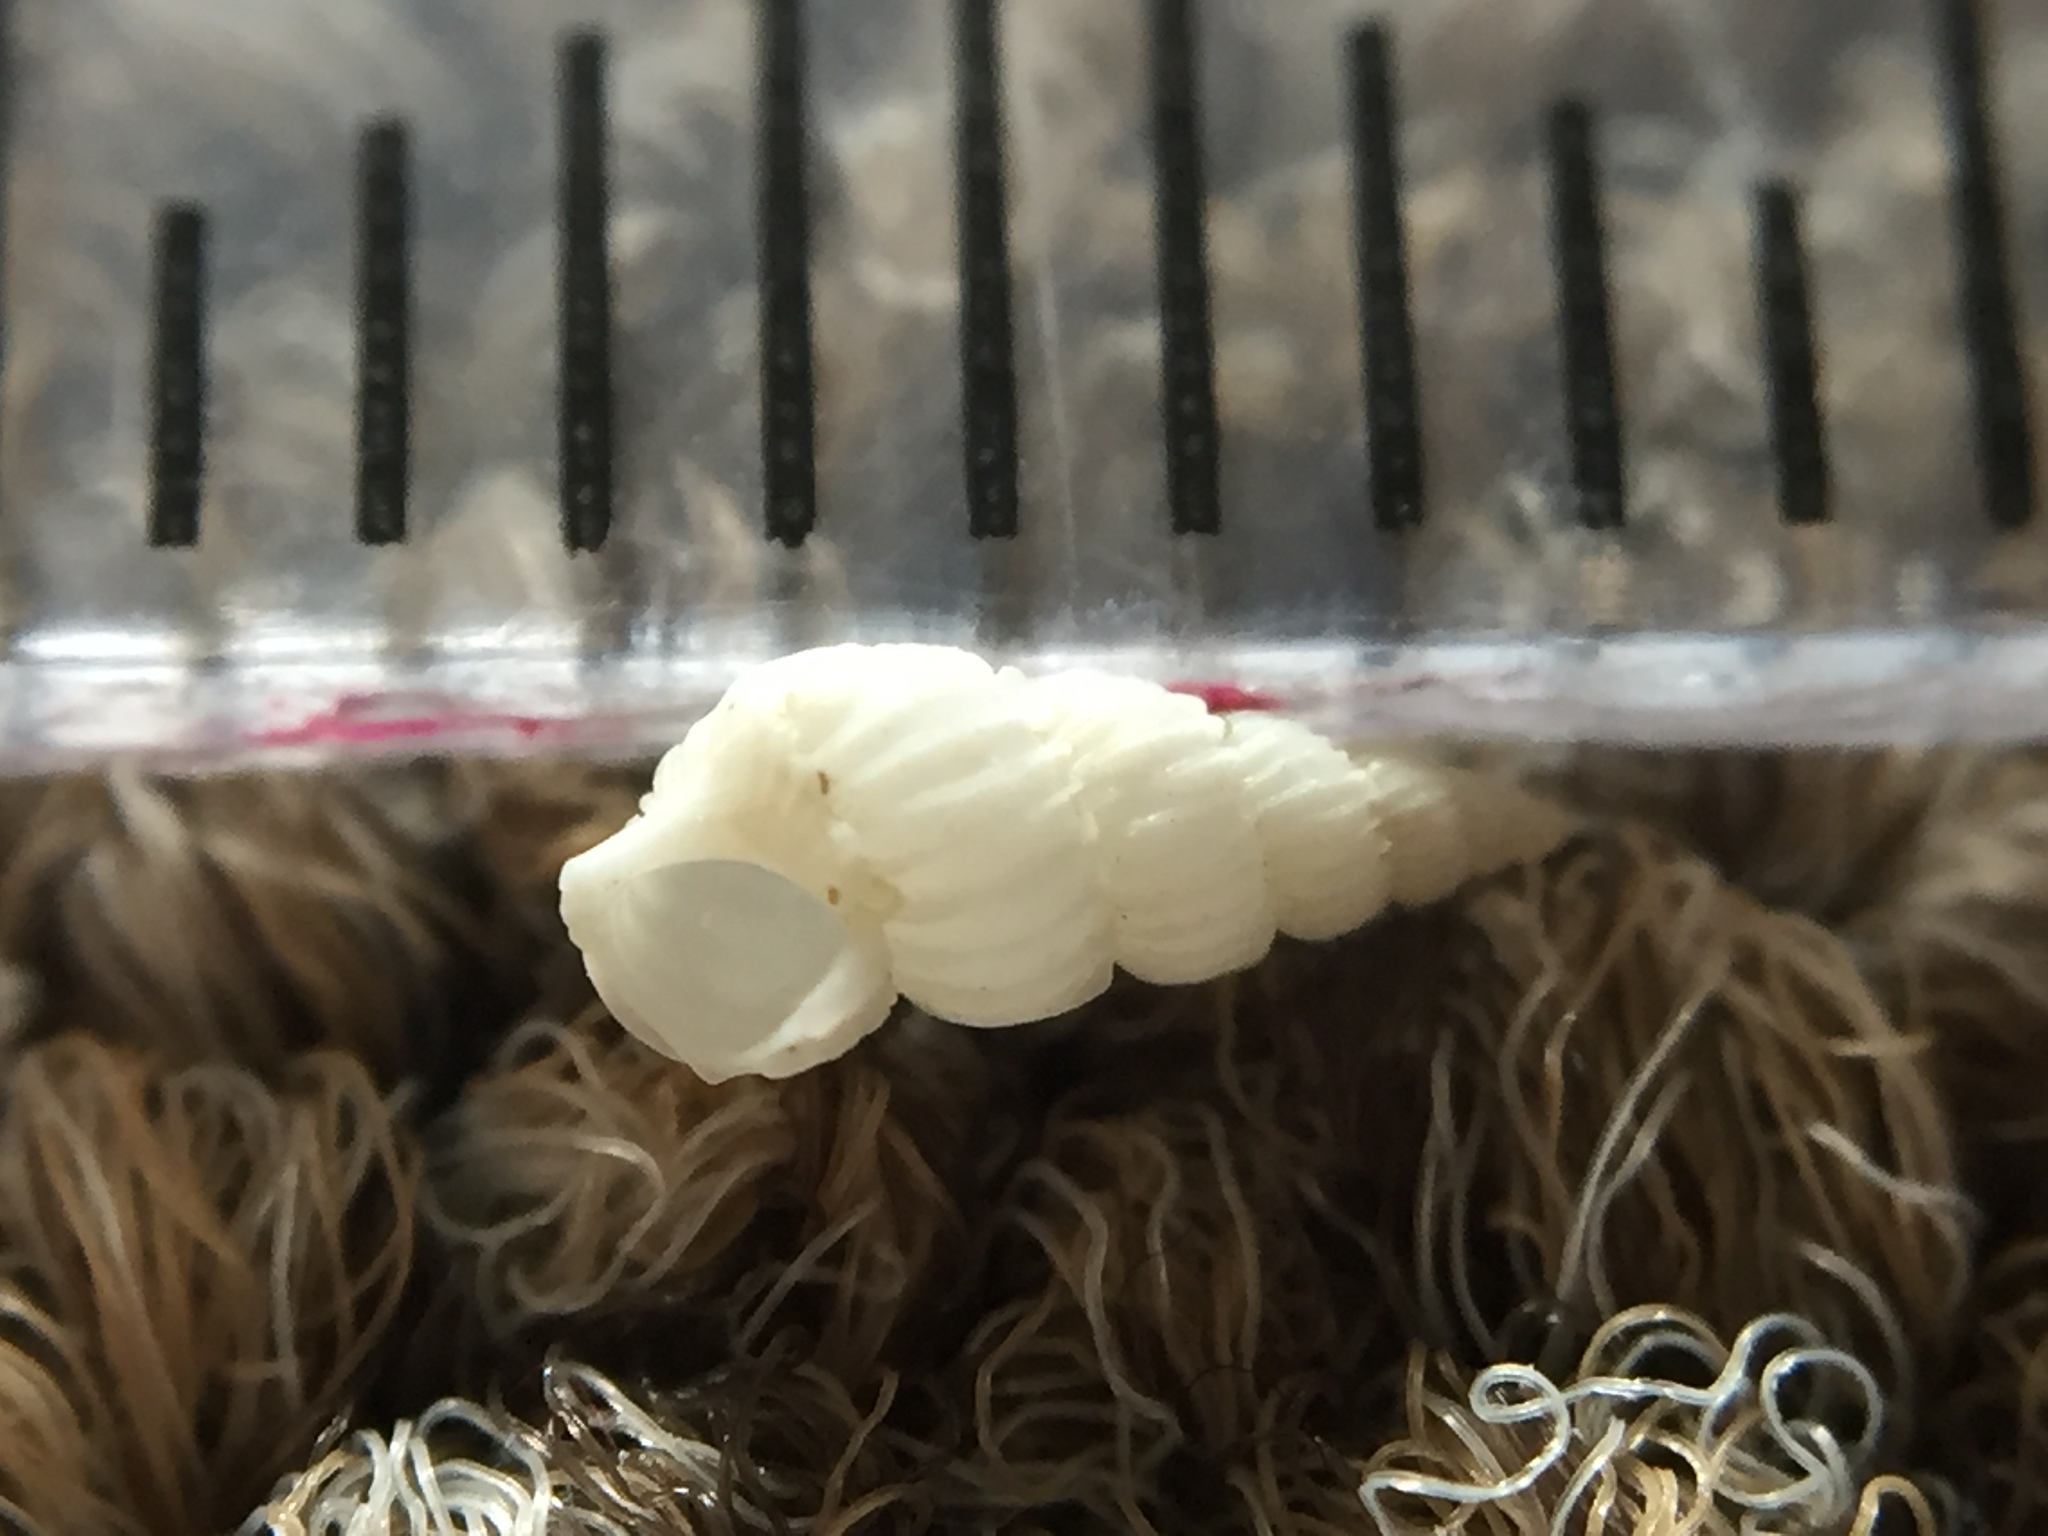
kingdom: Animalia
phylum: Mollusca
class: Gastropoda
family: Epitoniidae
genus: Epitonium
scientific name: Epitonium jukesianum
